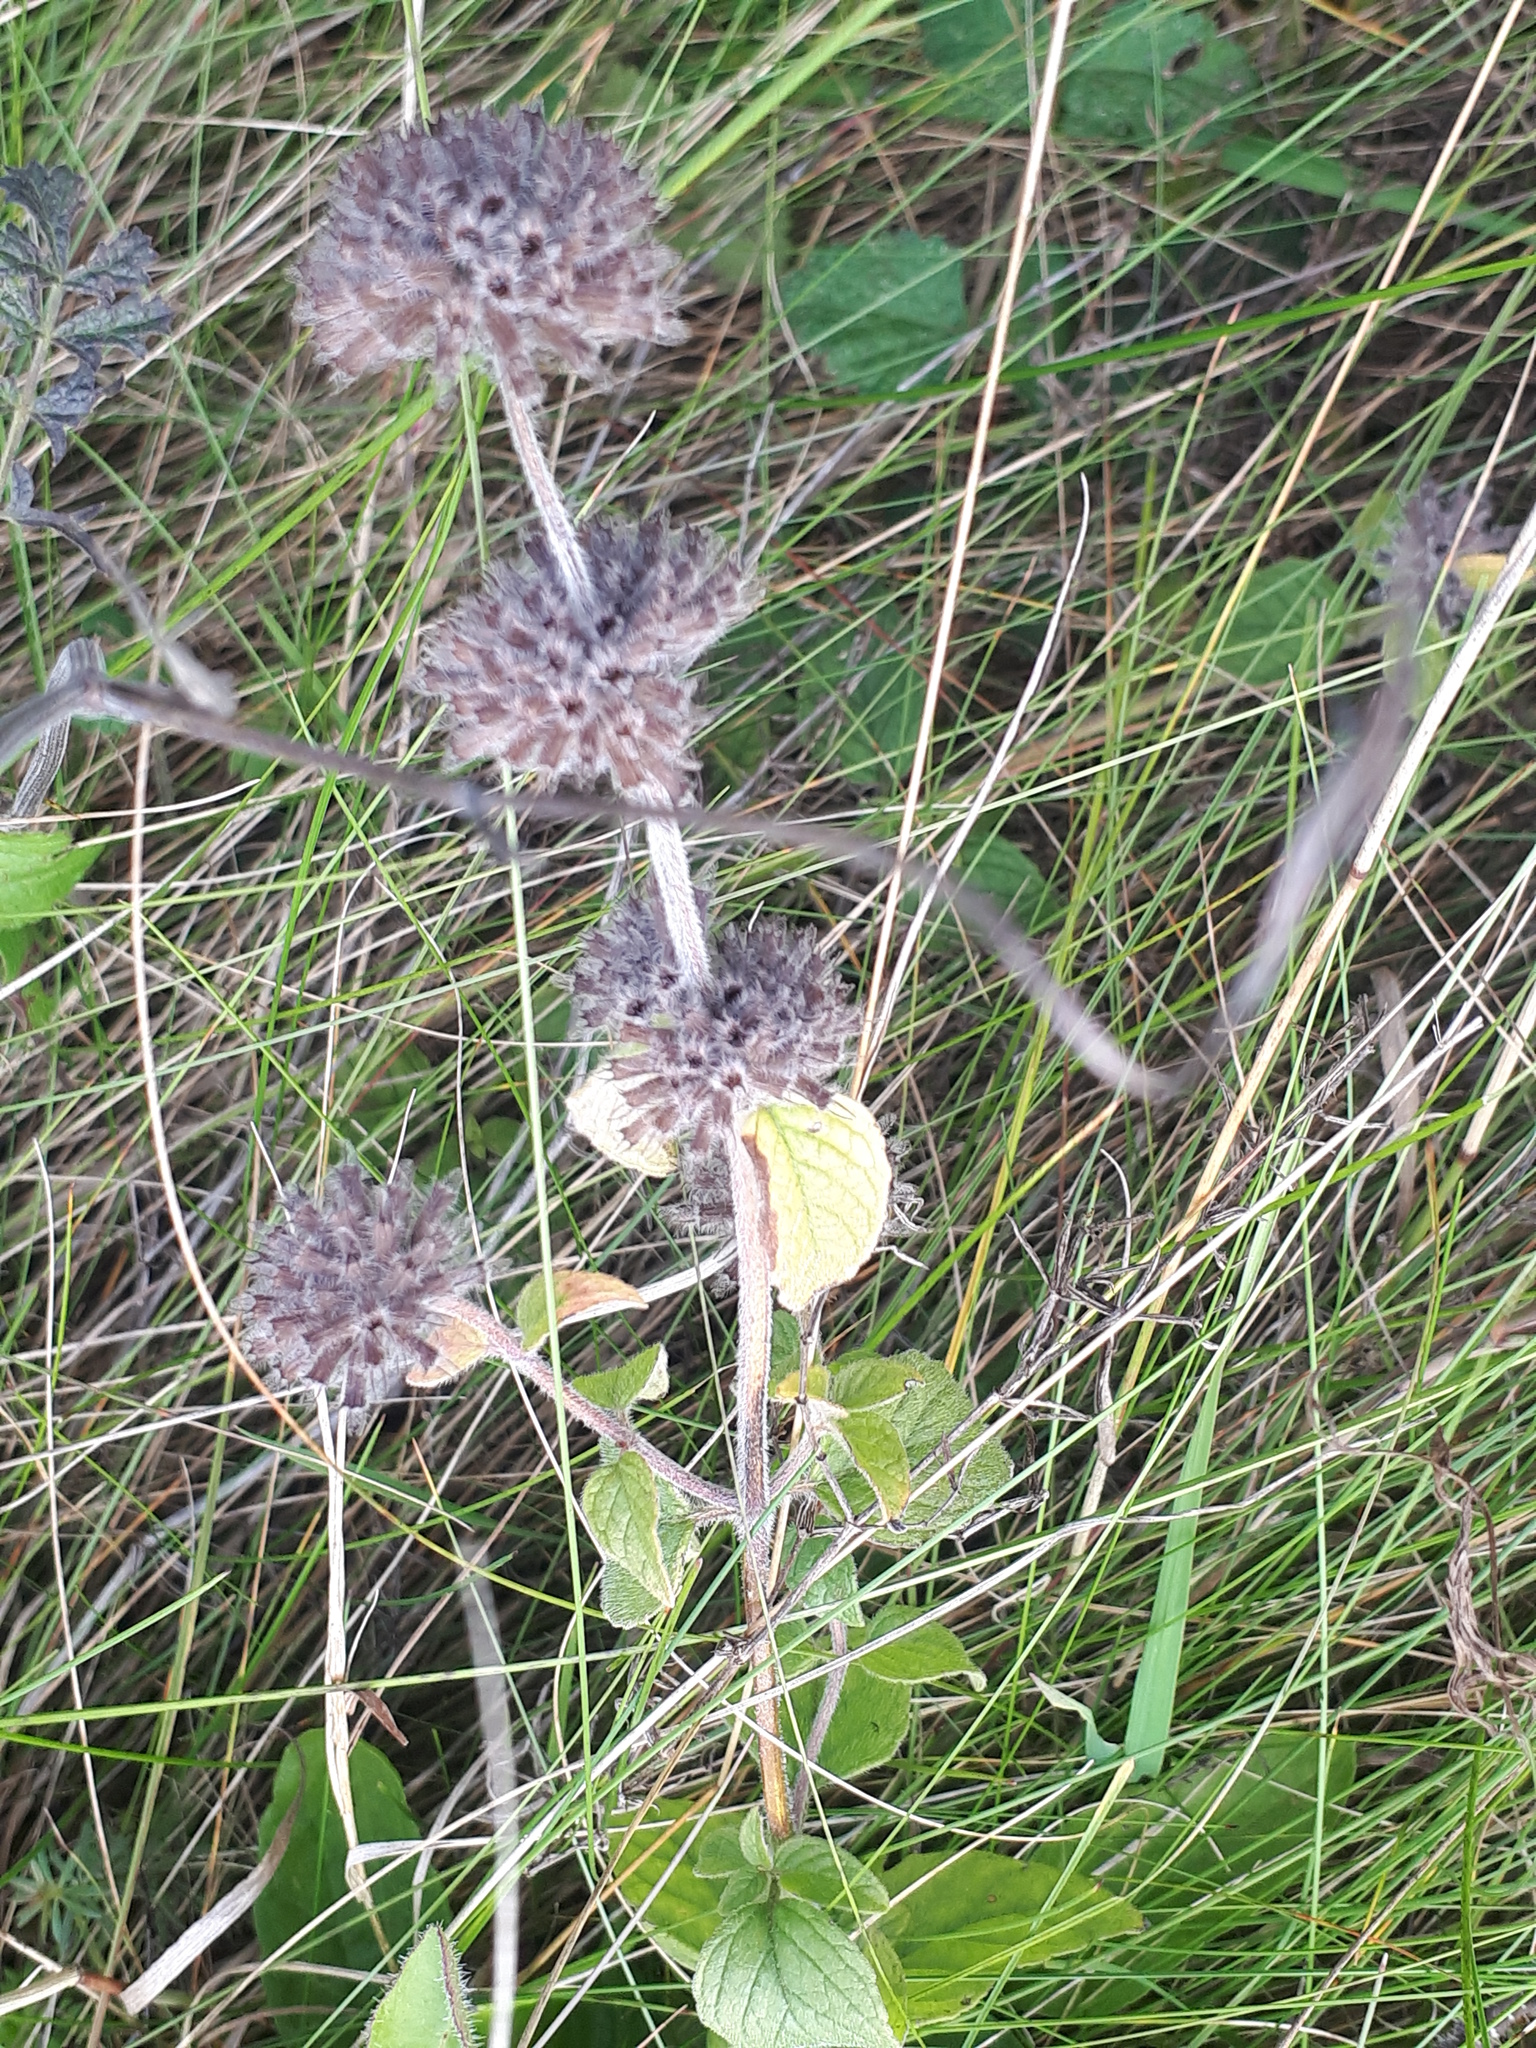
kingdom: Plantae
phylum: Tracheophyta
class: Magnoliopsida
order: Lamiales
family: Lamiaceae
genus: Clinopodium
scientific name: Clinopodium vulgare
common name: Wild basil
